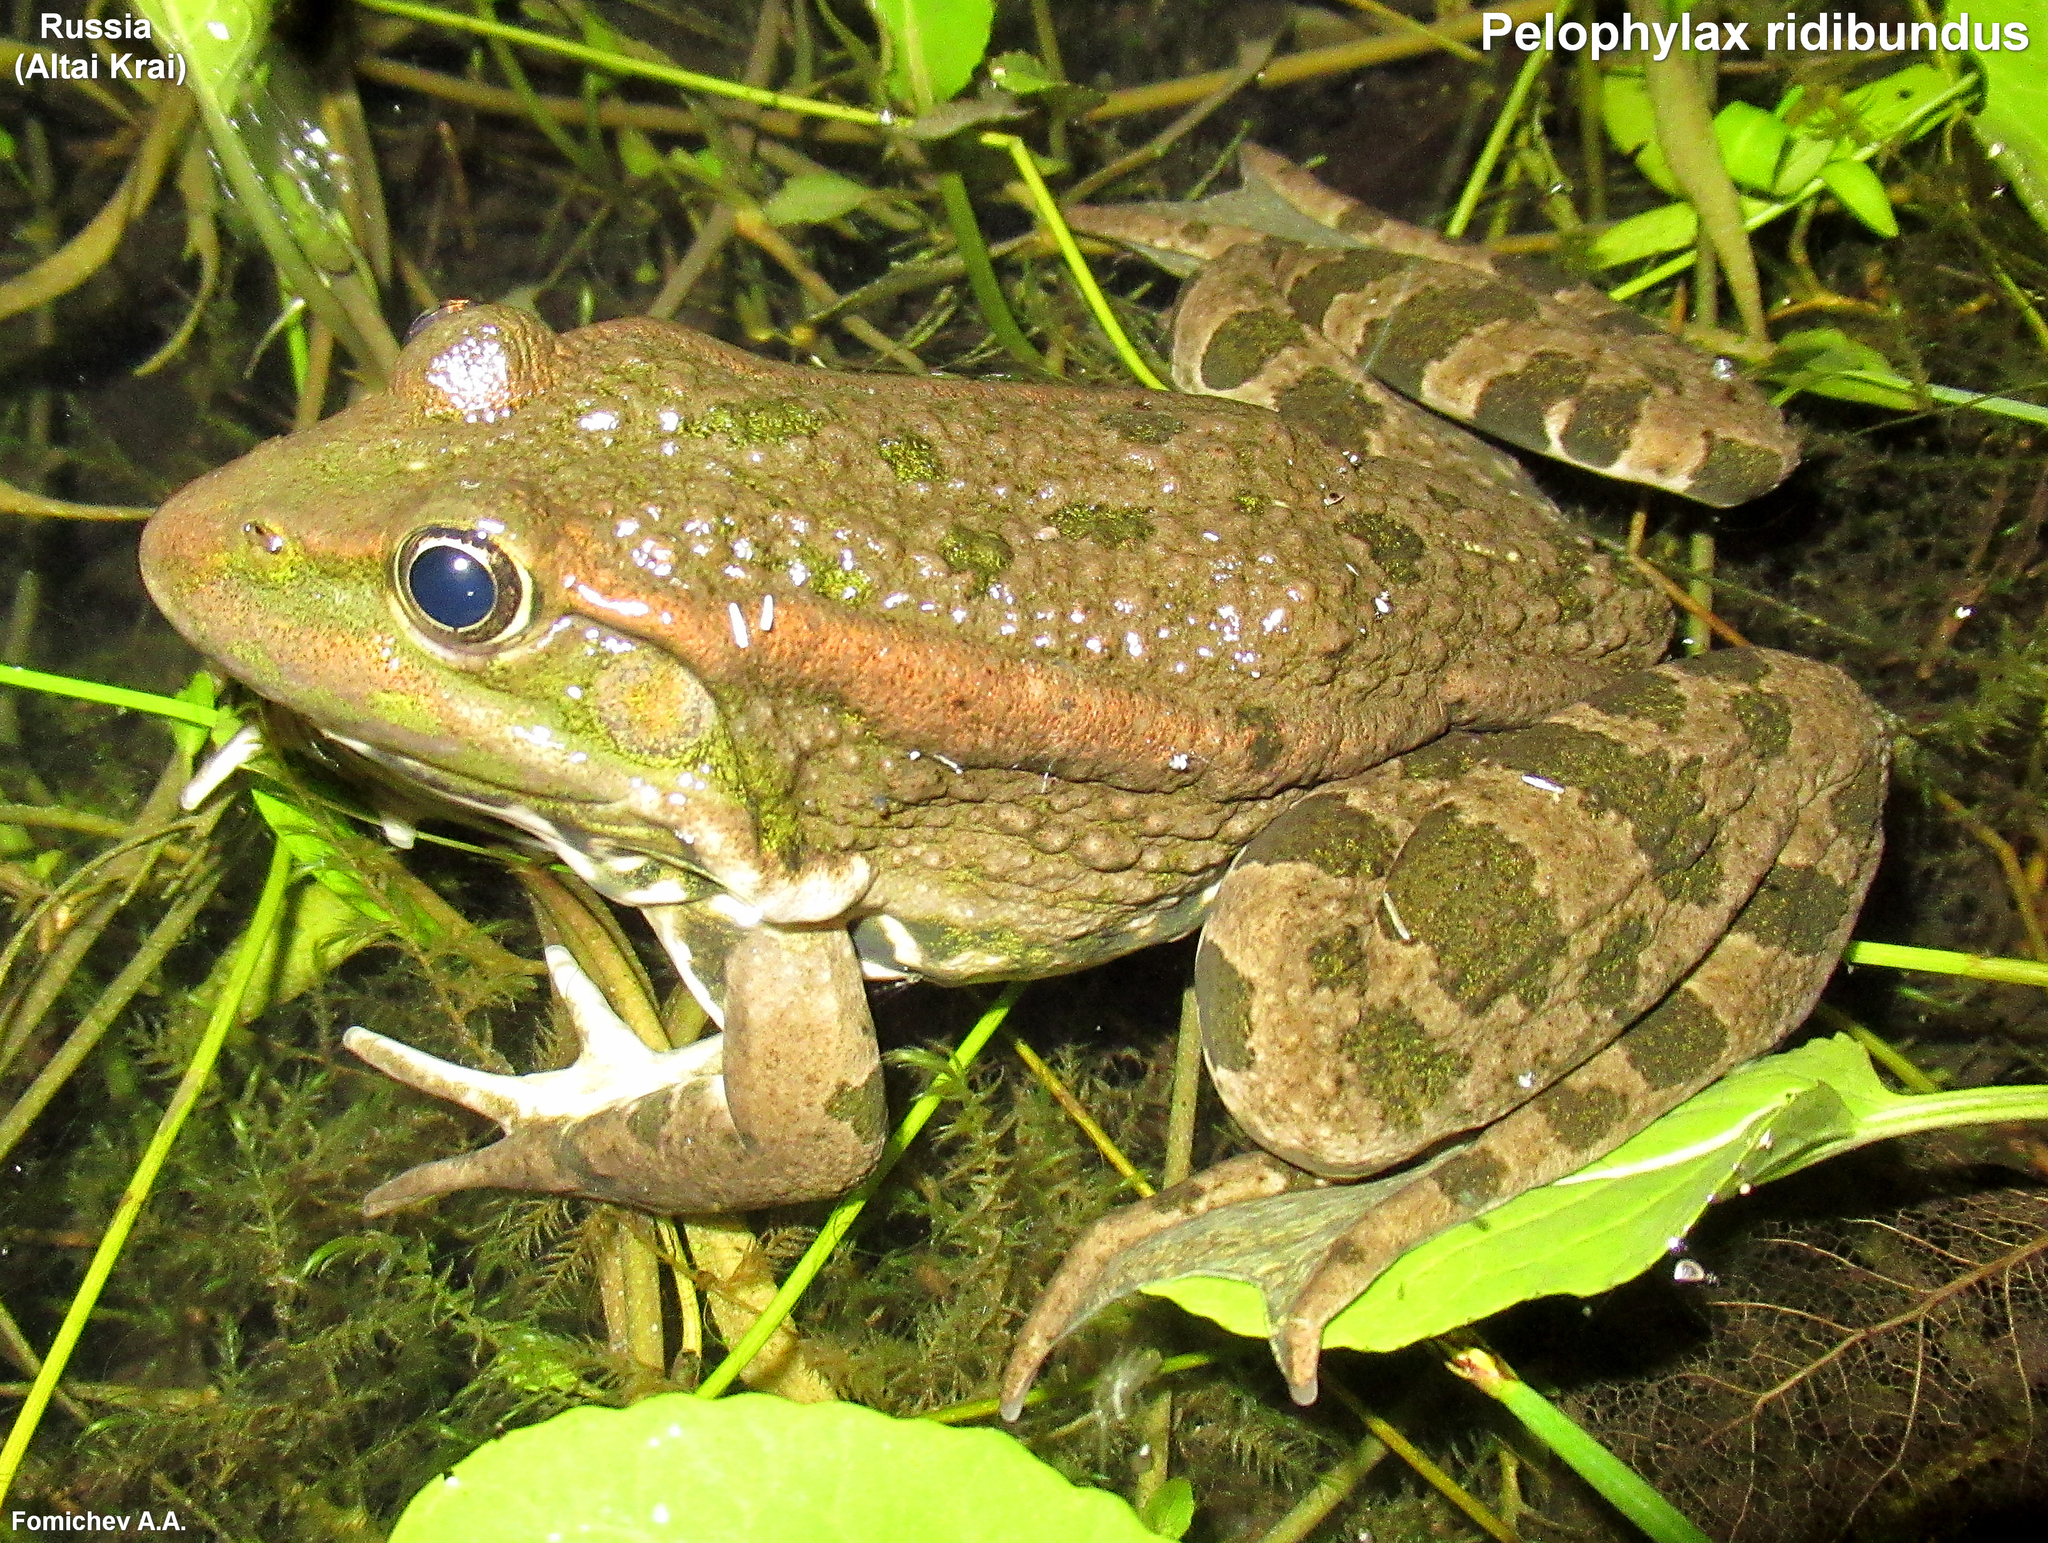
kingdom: Animalia
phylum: Chordata
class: Amphibia
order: Anura
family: Ranidae
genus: Pelophylax
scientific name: Pelophylax ridibundus
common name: Marsh frog
